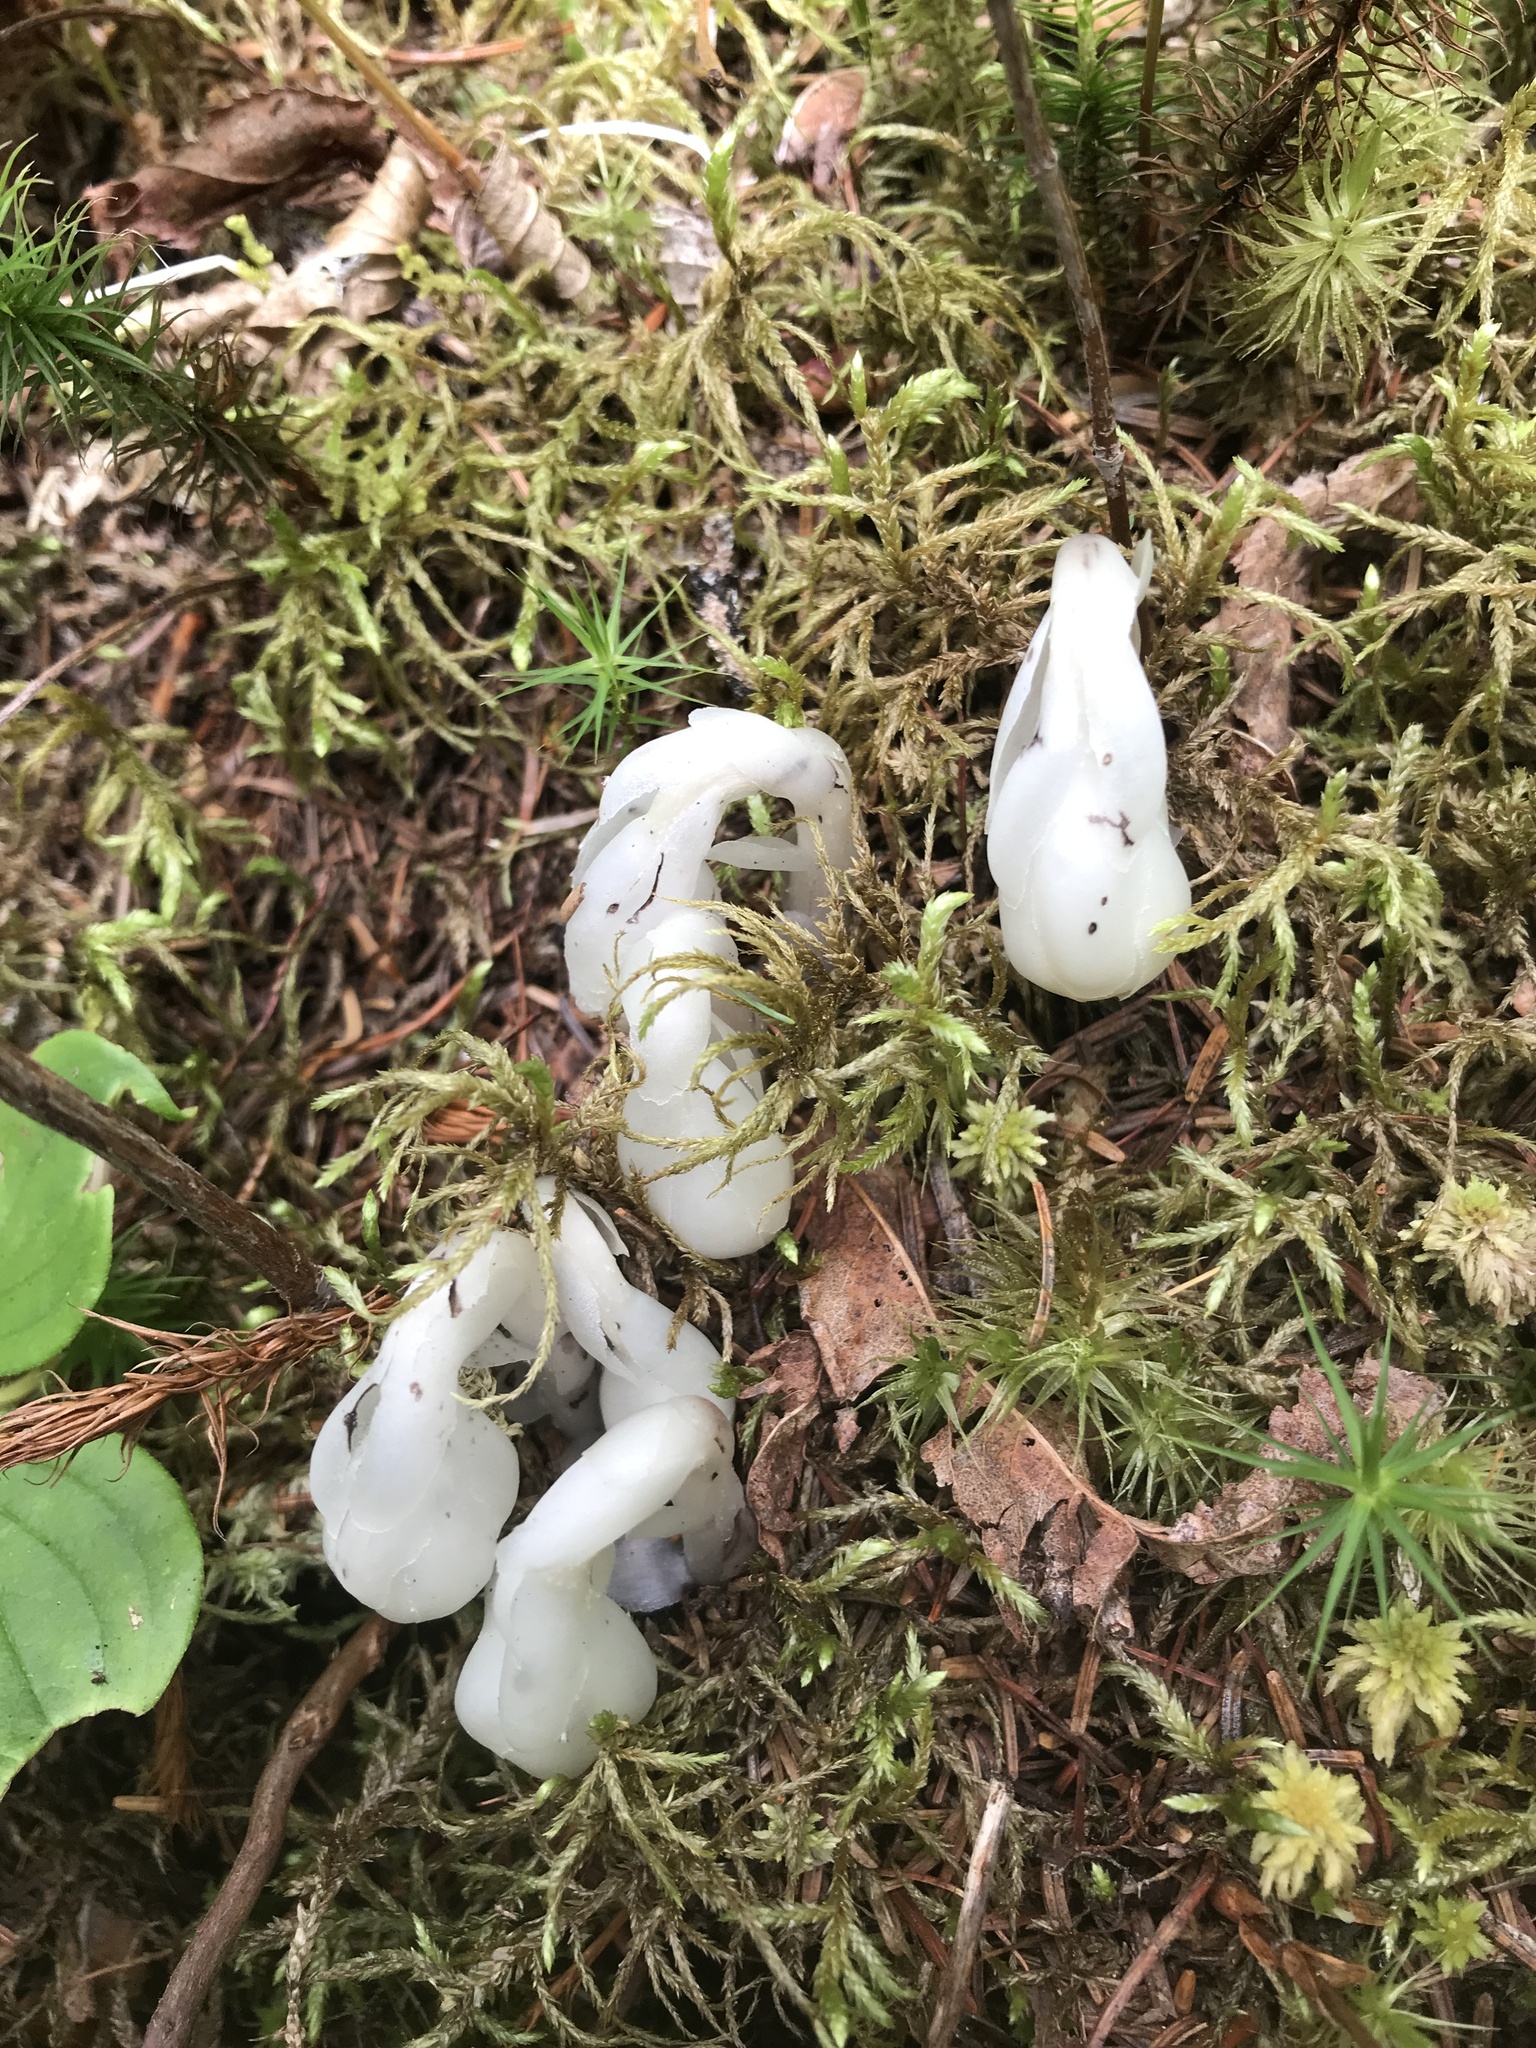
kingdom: Plantae
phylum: Tracheophyta
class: Magnoliopsida
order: Ericales
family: Ericaceae
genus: Monotropa
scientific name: Monotropa uniflora
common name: Convulsion root
